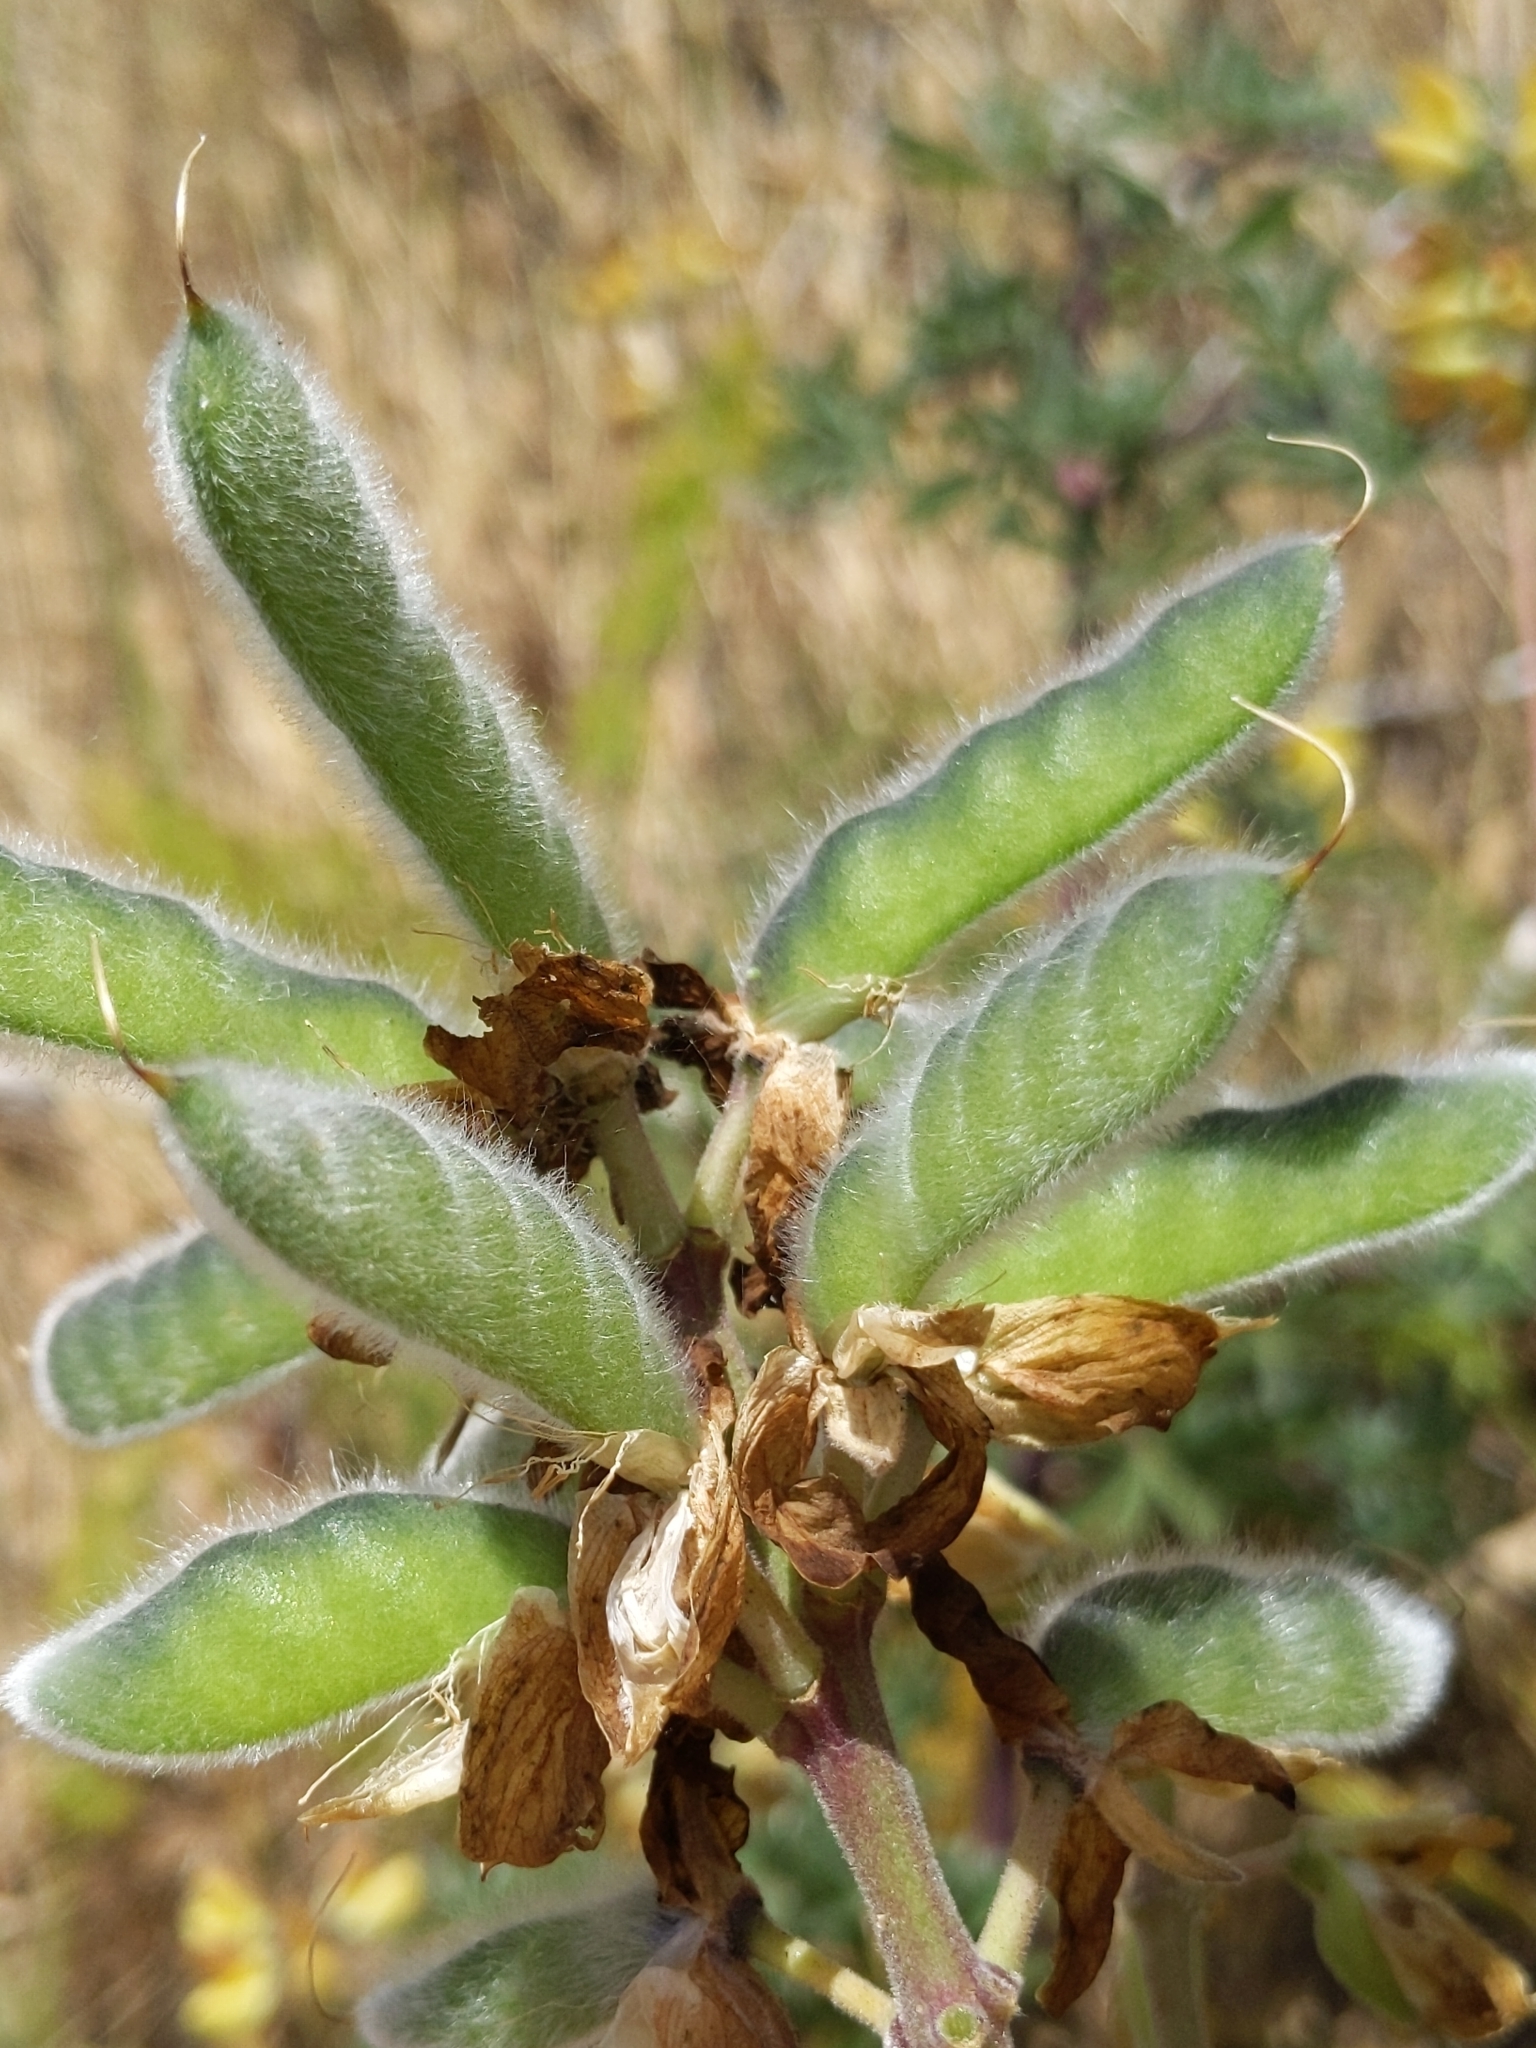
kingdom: Plantae
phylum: Tracheophyta
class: Magnoliopsida
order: Fabales
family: Fabaceae
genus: Lupinus
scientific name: Lupinus arboreus
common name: Yellow bush lupine
